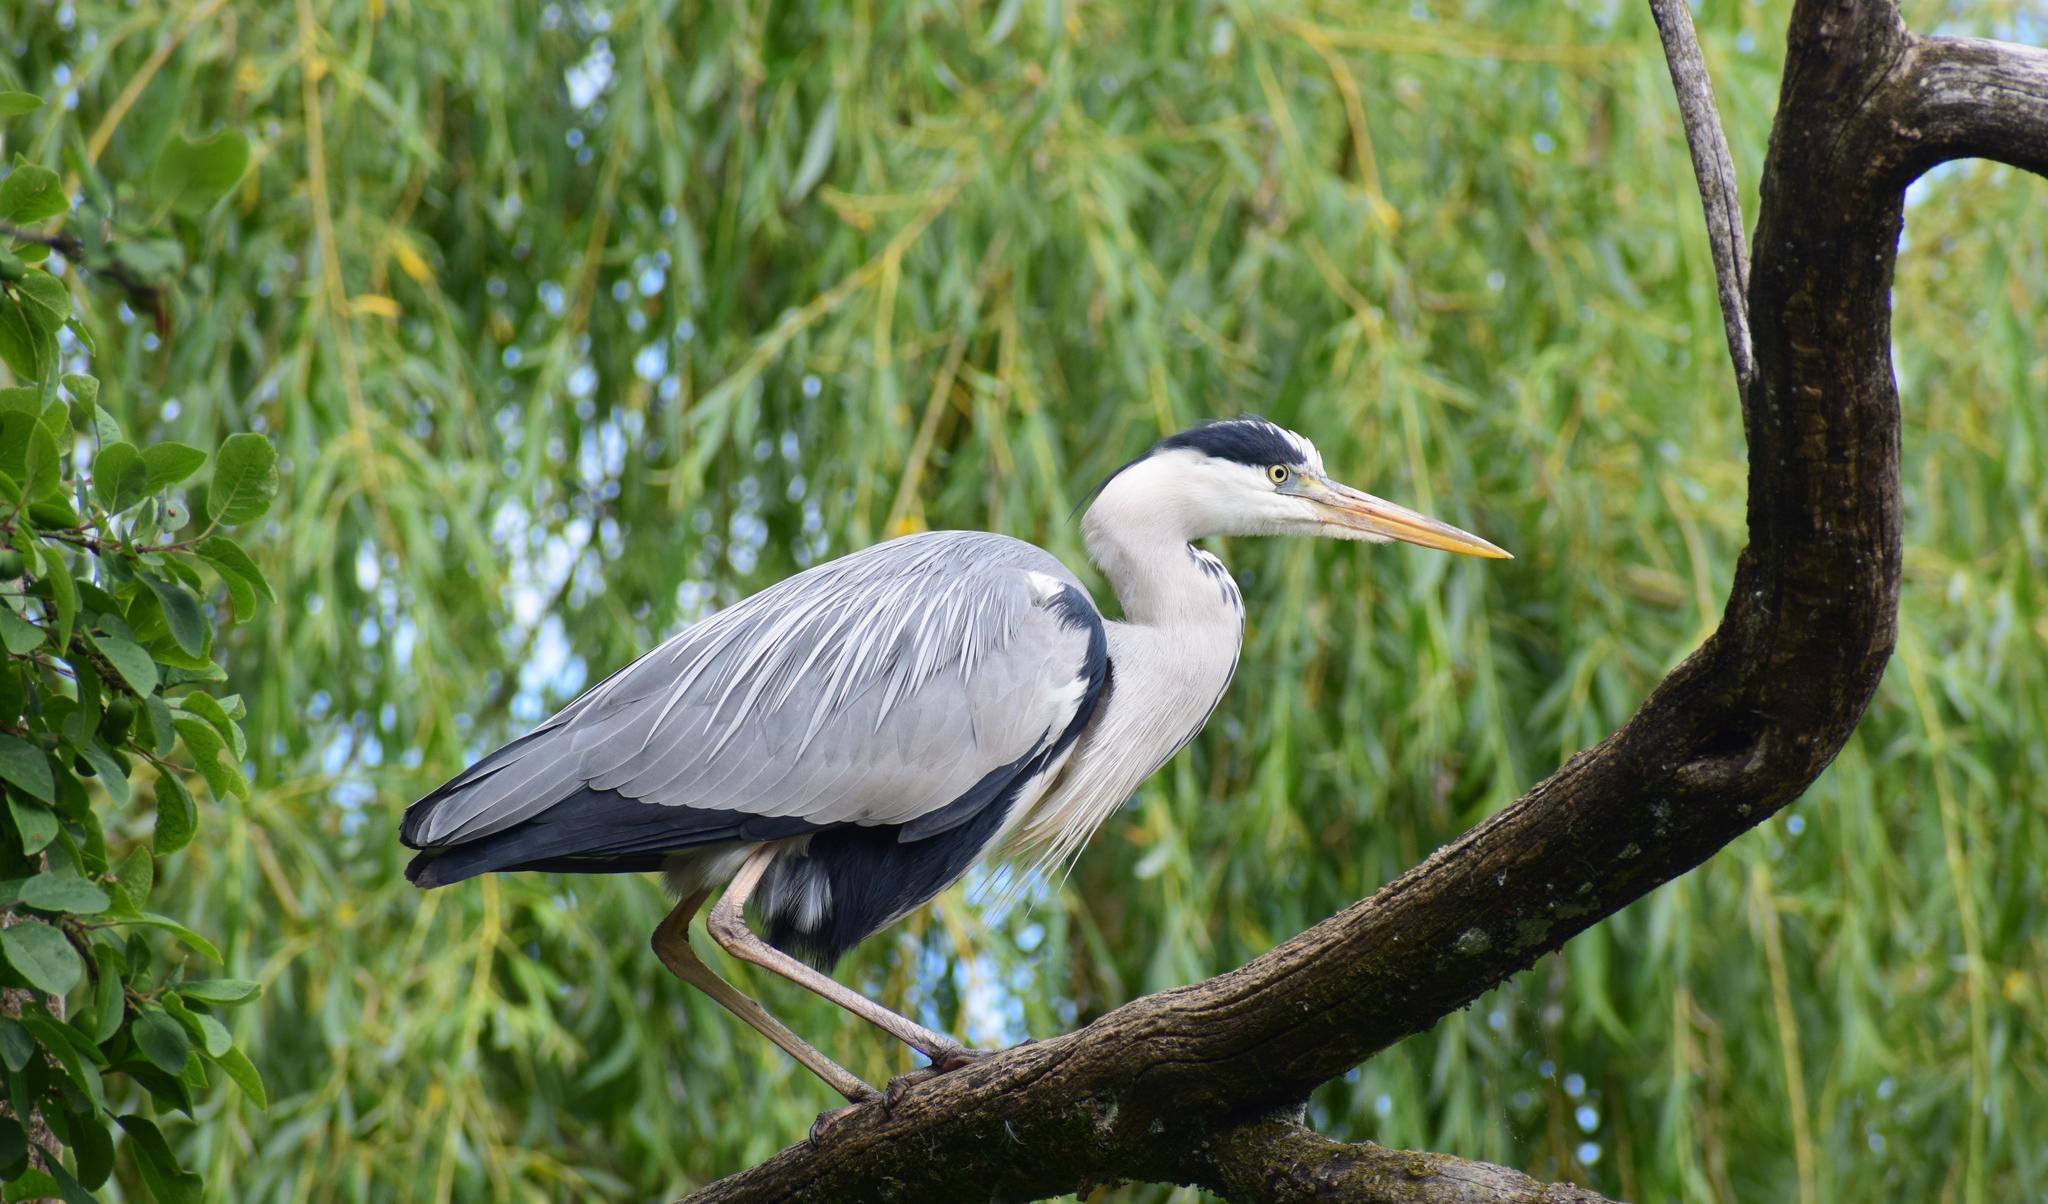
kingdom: Animalia
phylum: Chordata
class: Aves
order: Pelecaniformes
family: Ardeidae
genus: Ardea
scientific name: Ardea cinerea
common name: Grey heron
